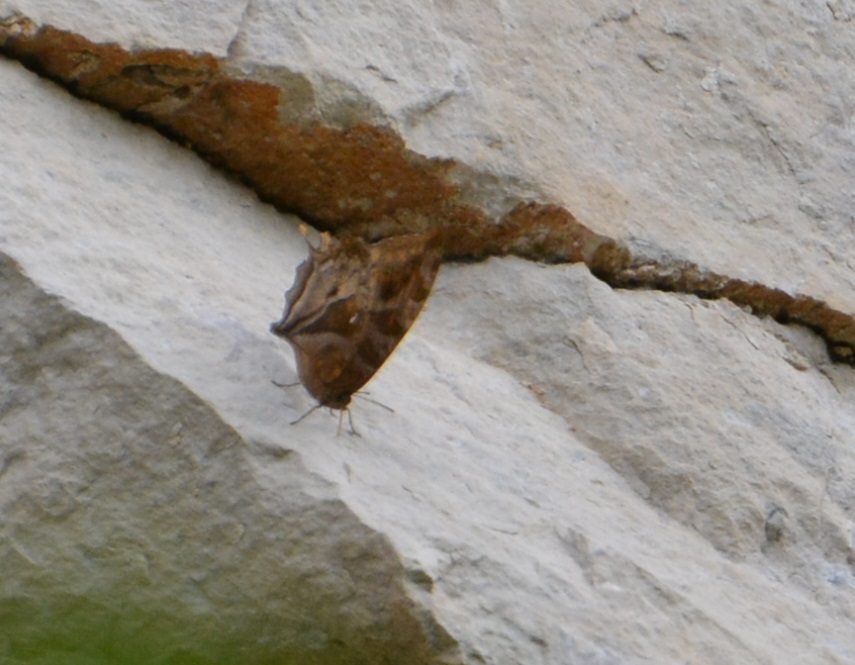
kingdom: Animalia
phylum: Arthropoda
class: Insecta
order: Lepidoptera
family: Nymphalidae
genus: Consul
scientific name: Consul excellens
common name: Black-veined leafwing
